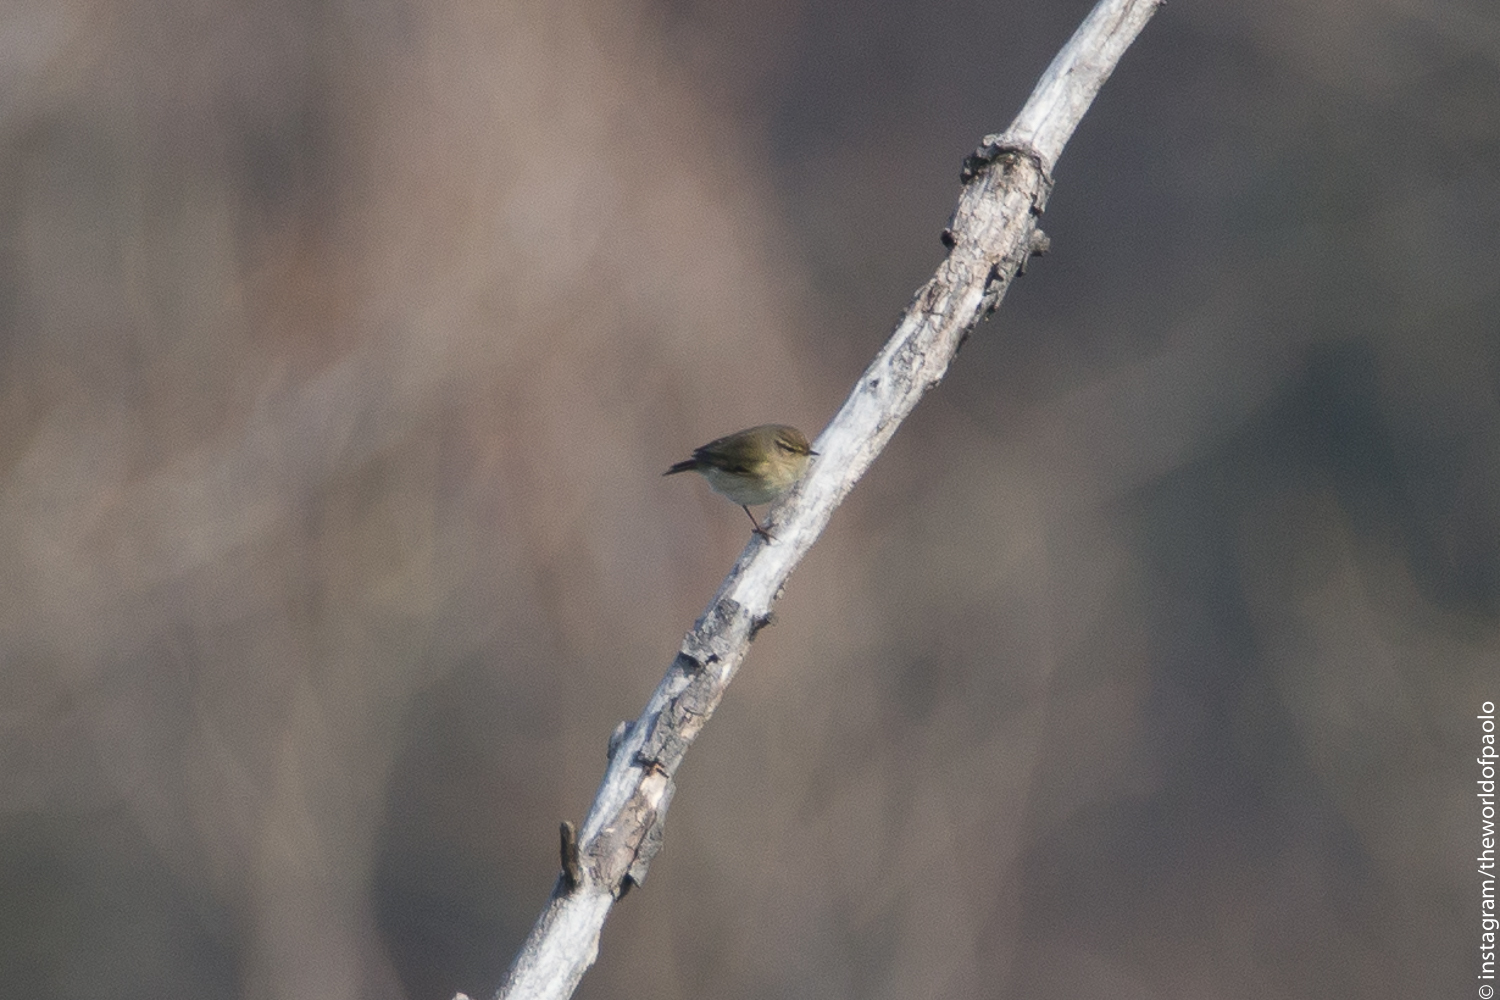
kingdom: Animalia
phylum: Chordata
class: Aves
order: Passeriformes
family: Phylloscopidae
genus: Phylloscopus
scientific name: Phylloscopus collybita
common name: Common chiffchaff
